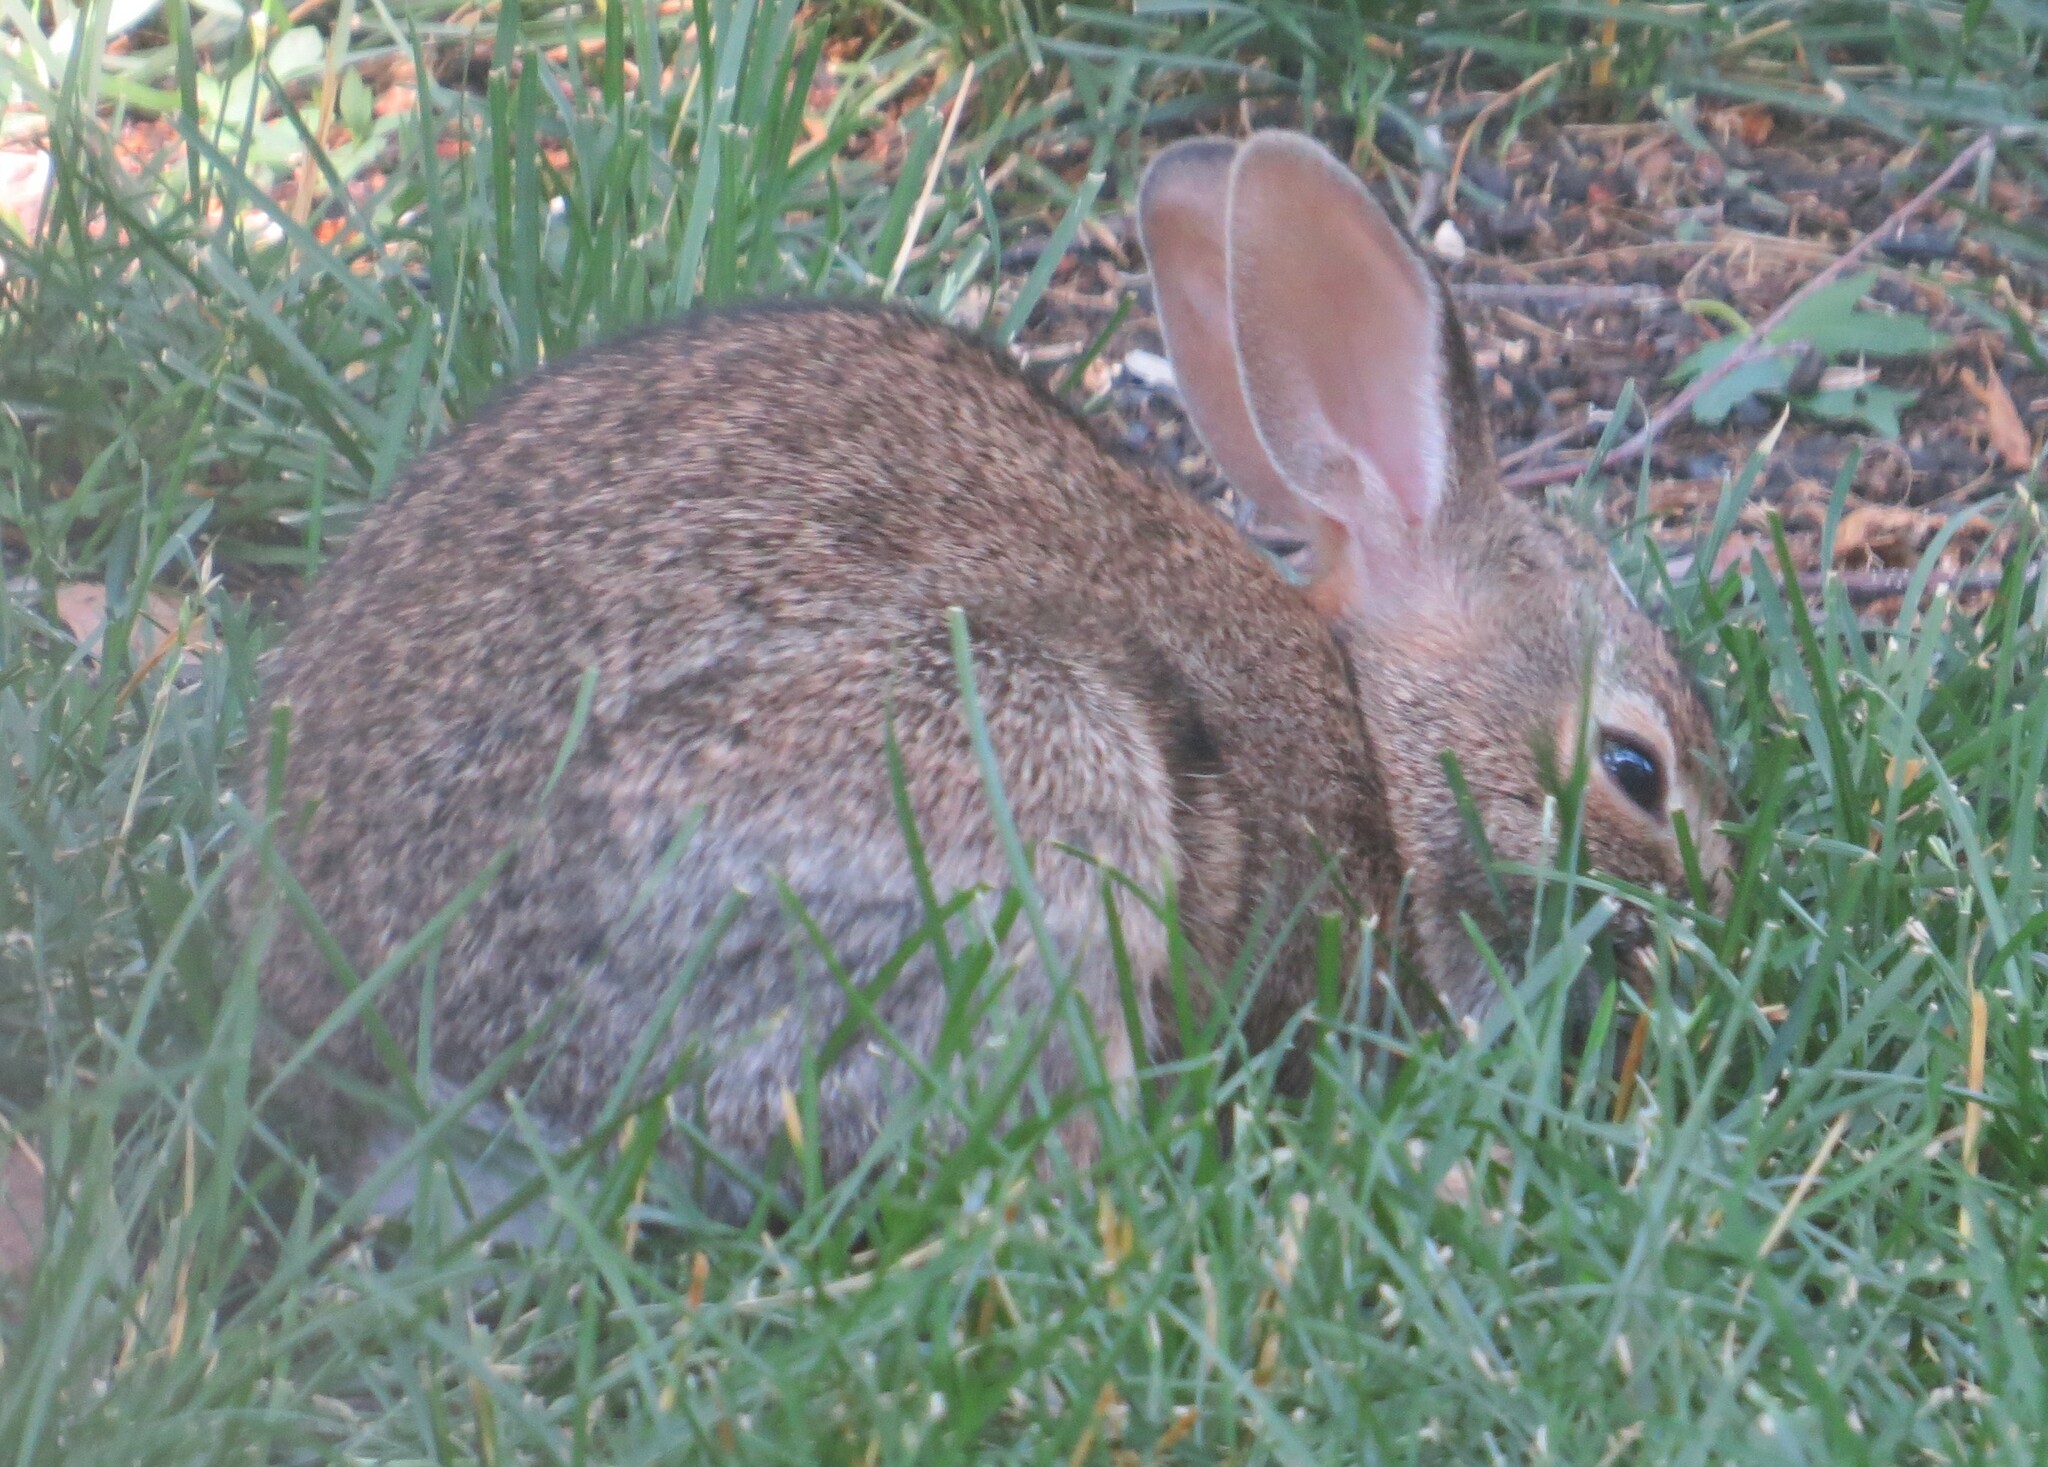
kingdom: Animalia
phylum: Chordata
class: Mammalia
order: Lagomorpha
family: Leporidae
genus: Sylvilagus
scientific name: Sylvilagus floridanus
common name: Eastern cottontail
